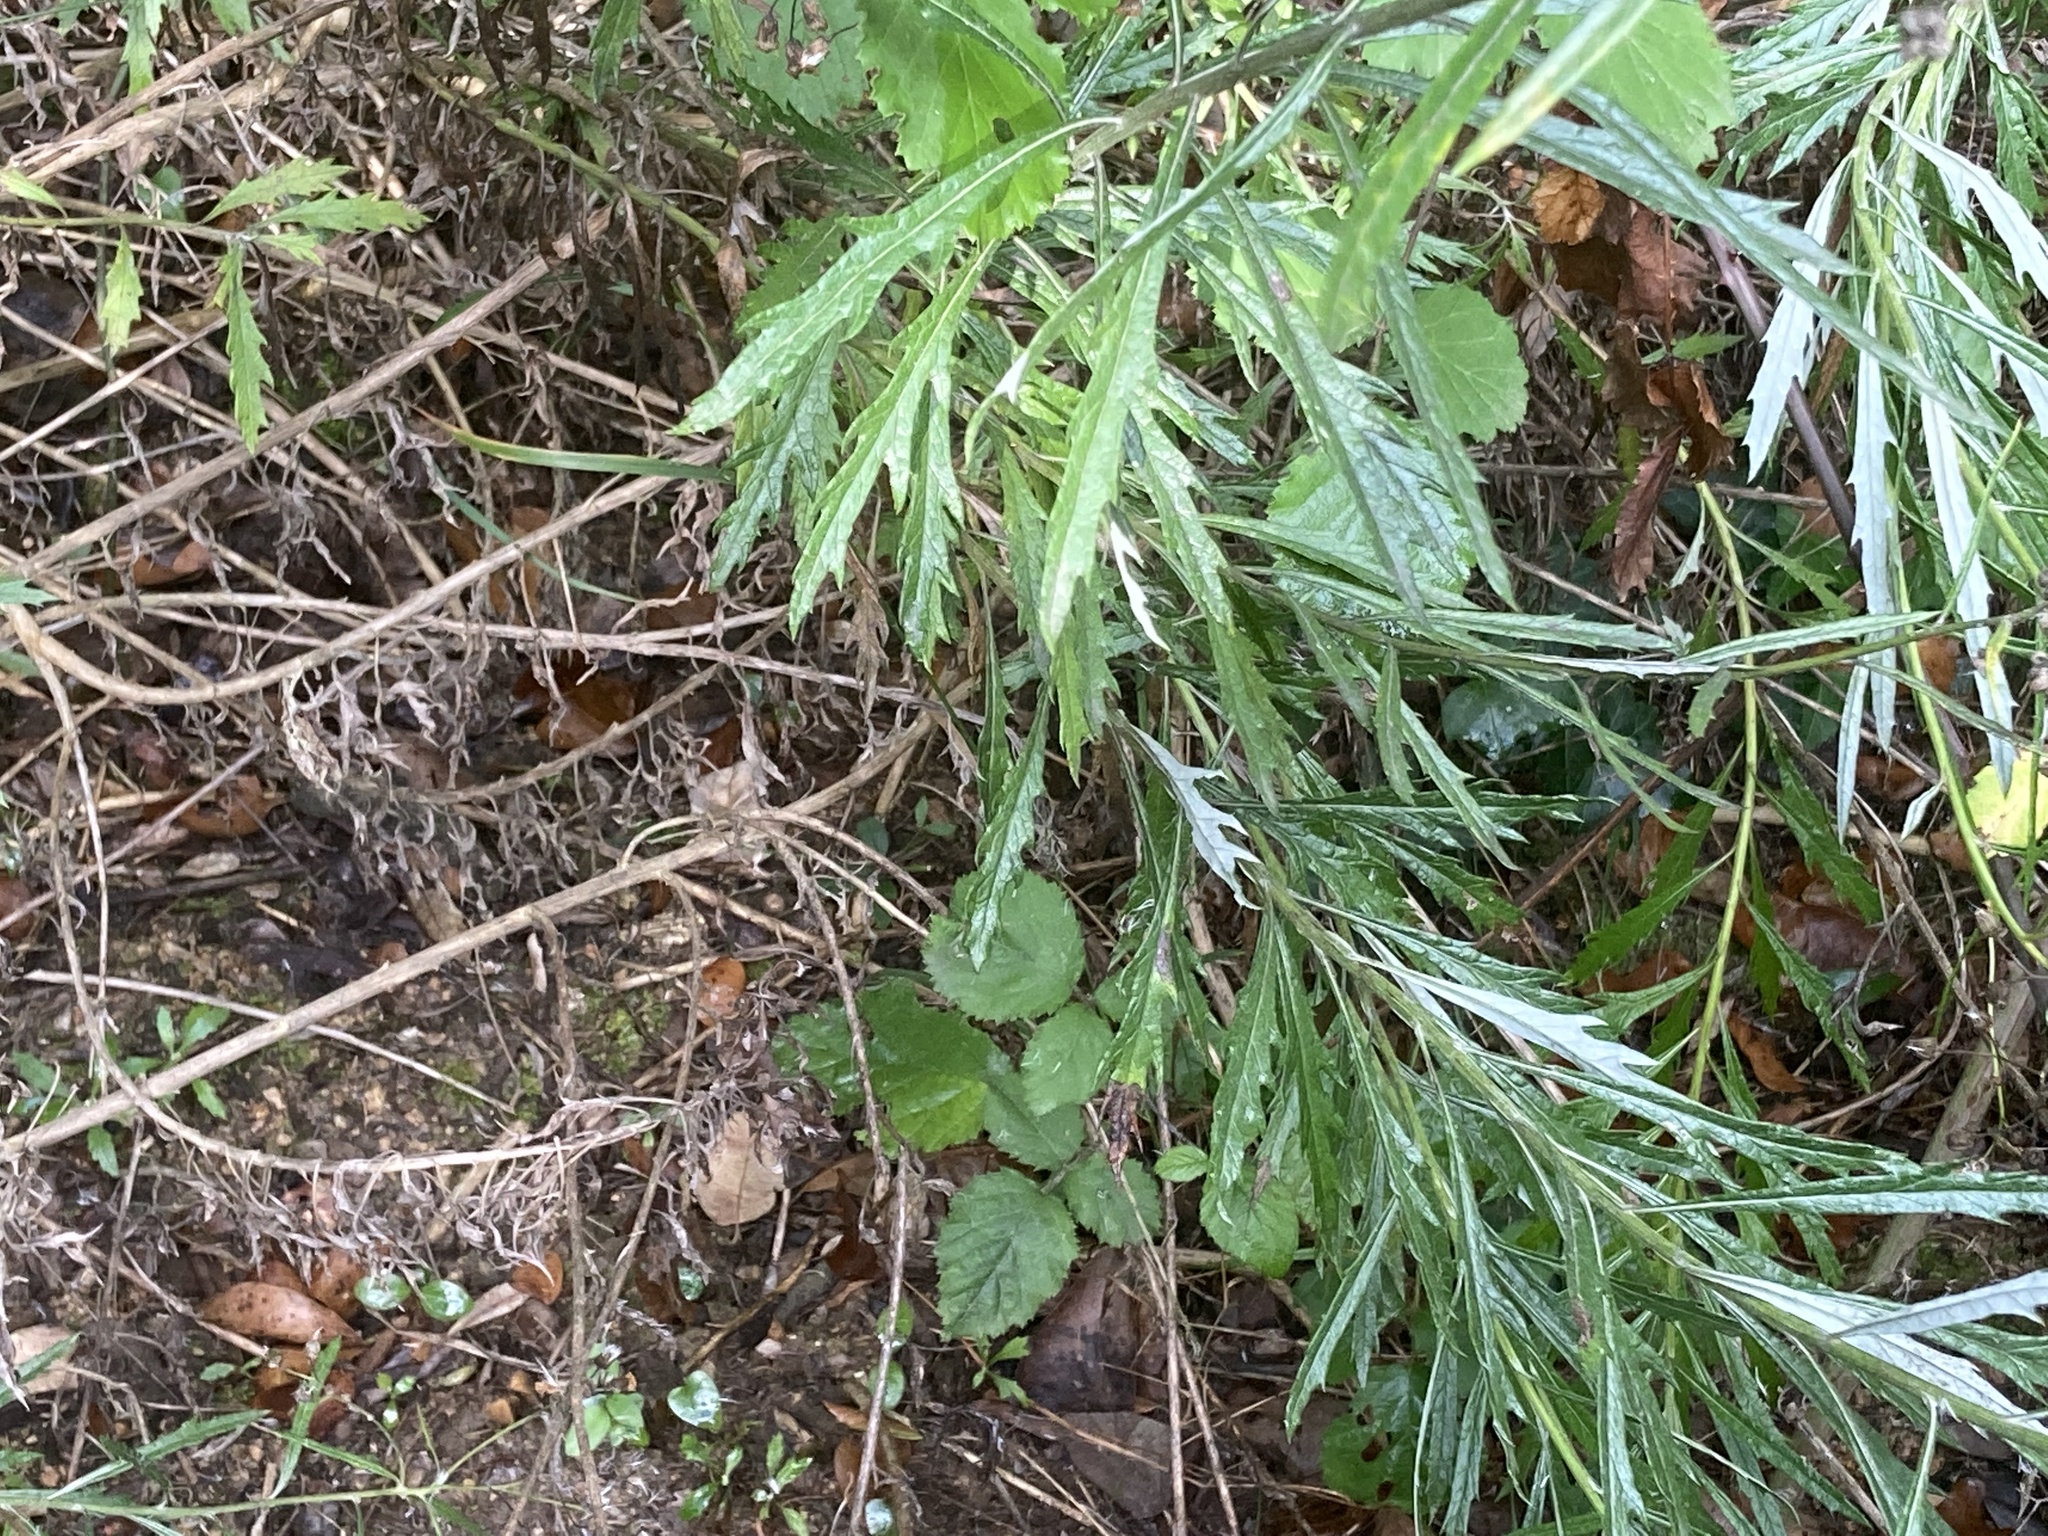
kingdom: Plantae
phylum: Tracheophyta
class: Magnoliopsida
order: Asterales
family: Asteraceae
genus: Senecio
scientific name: Senecio pterophorus
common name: Shoddy ragwort
